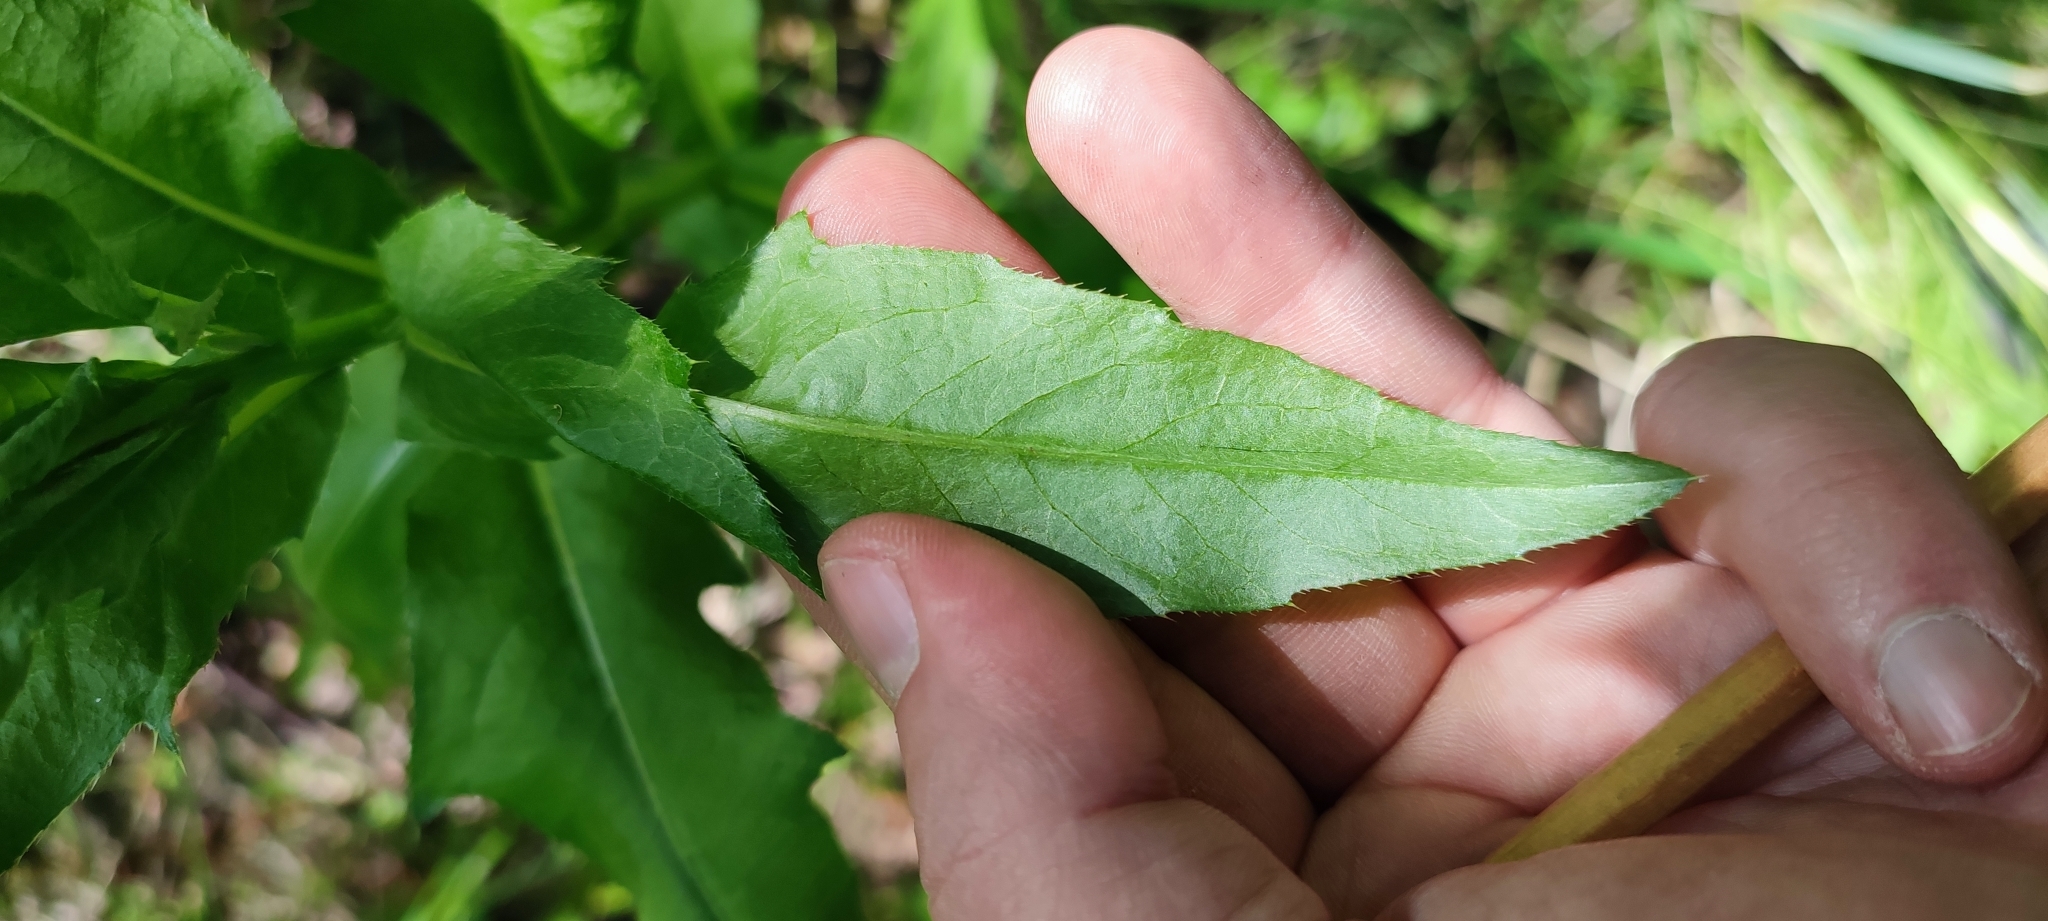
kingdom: Plantae
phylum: Tracheophyta
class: Magnoliopsida
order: Asterales
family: Asteraceae
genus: Cirsium
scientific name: Cirsium arvense
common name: Creeping thistle
